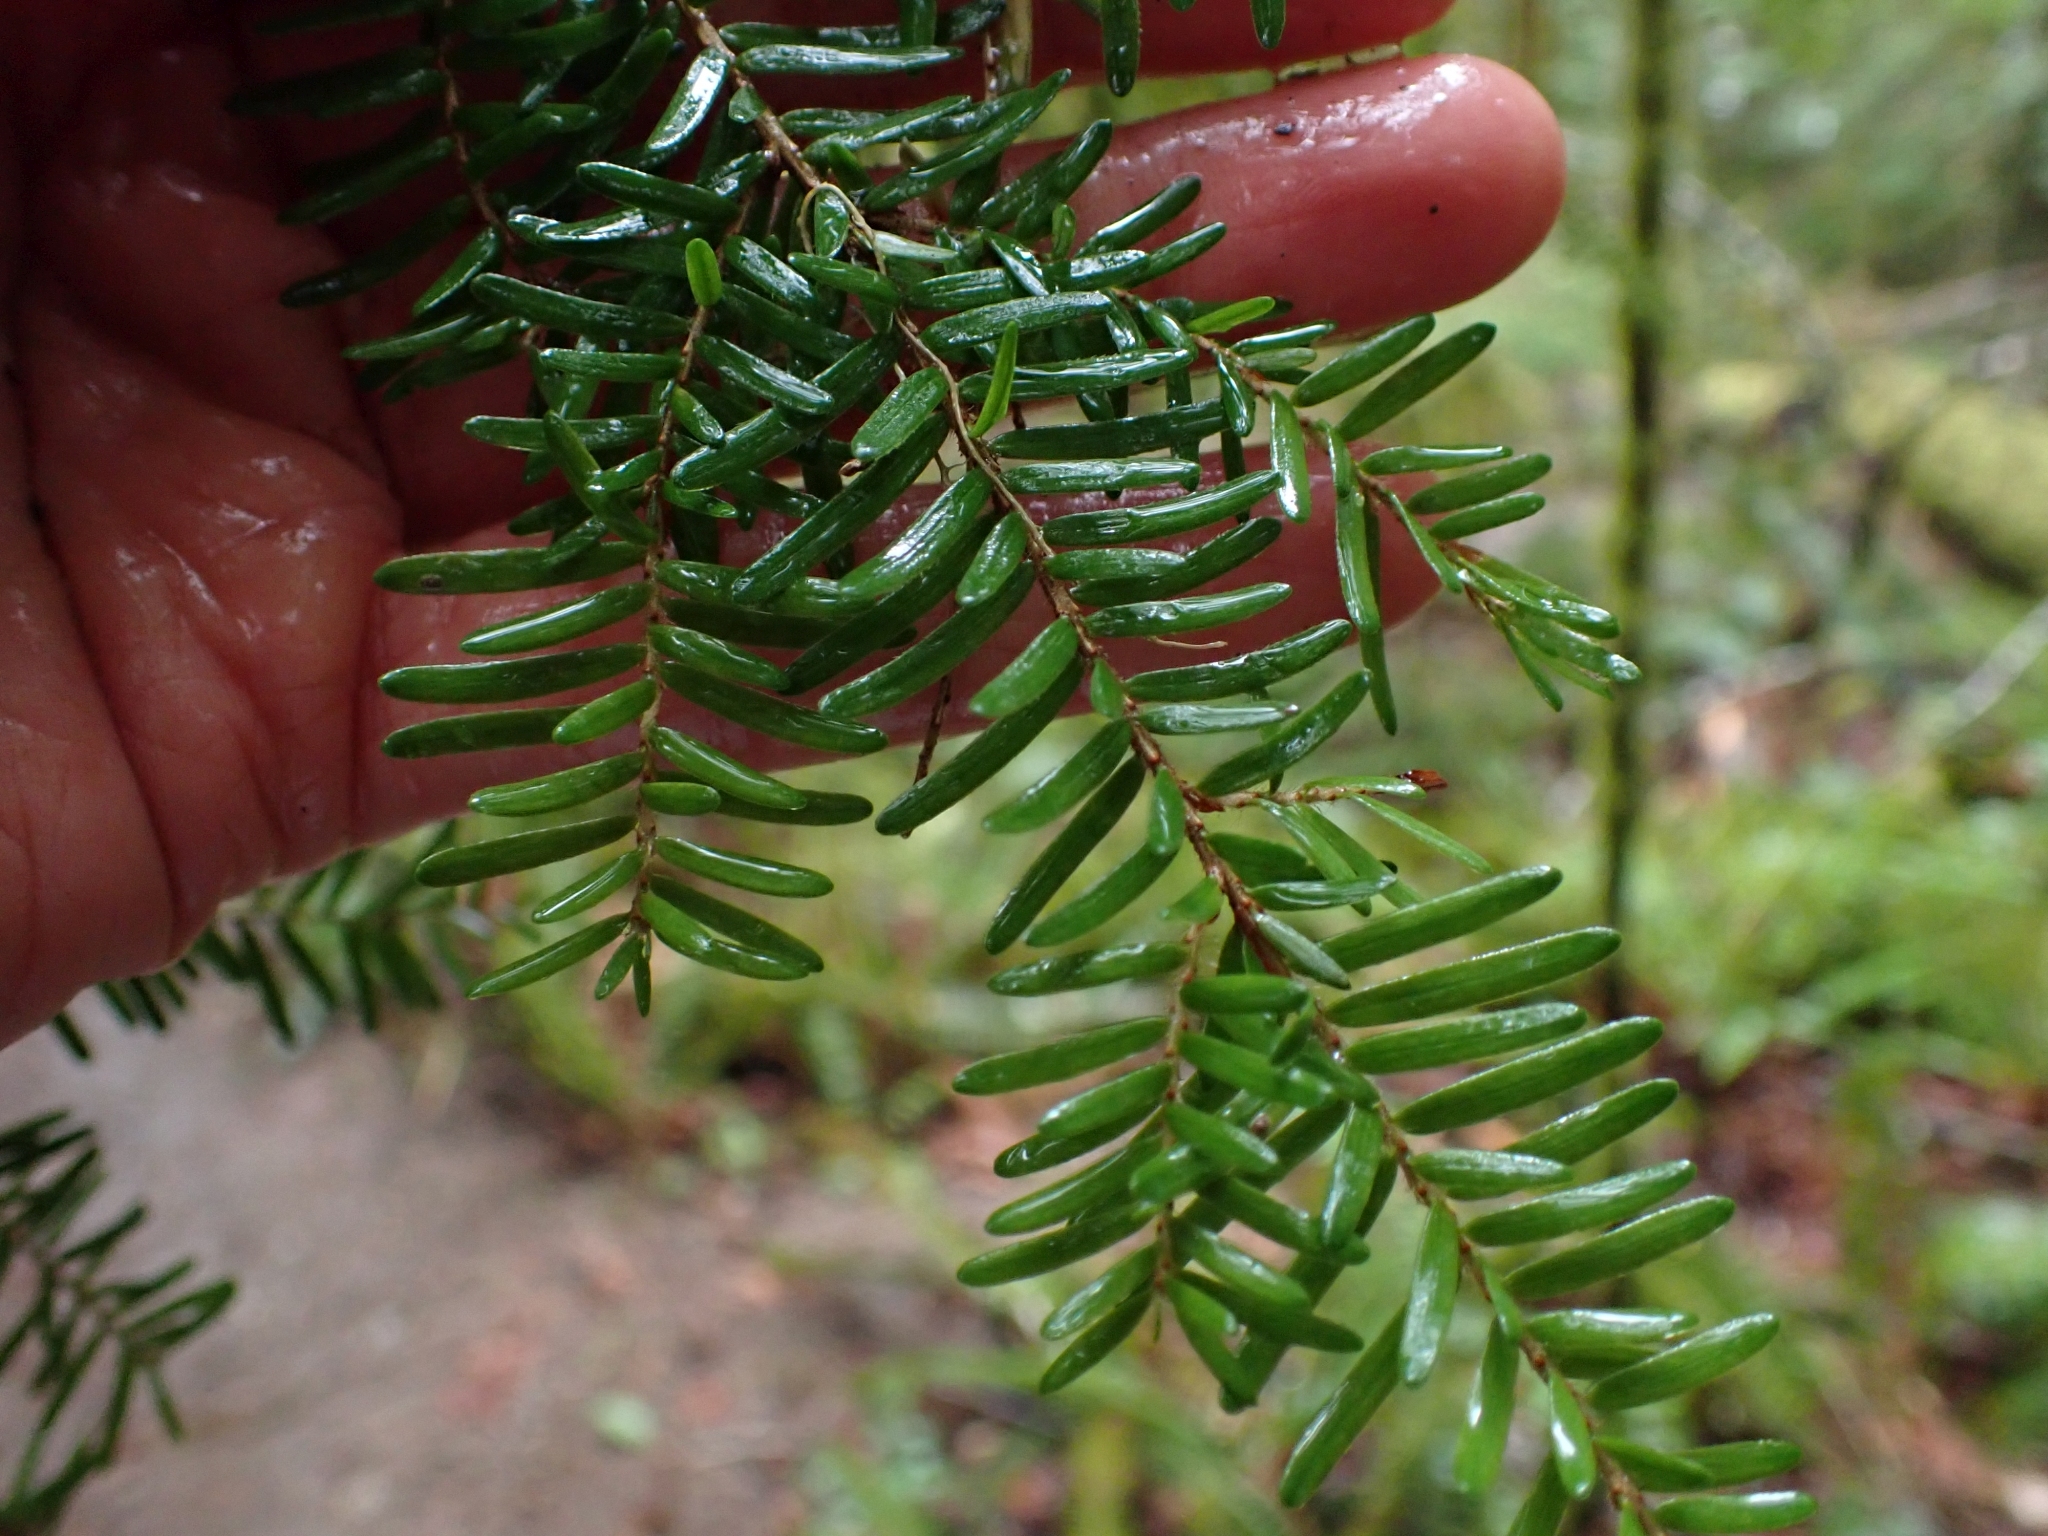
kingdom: Plantae
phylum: Tracheophyta
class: Pinopsida
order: Pinales
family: Pinaceae
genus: Tsuga
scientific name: Tsuga heterophylla
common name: Western hemlock
